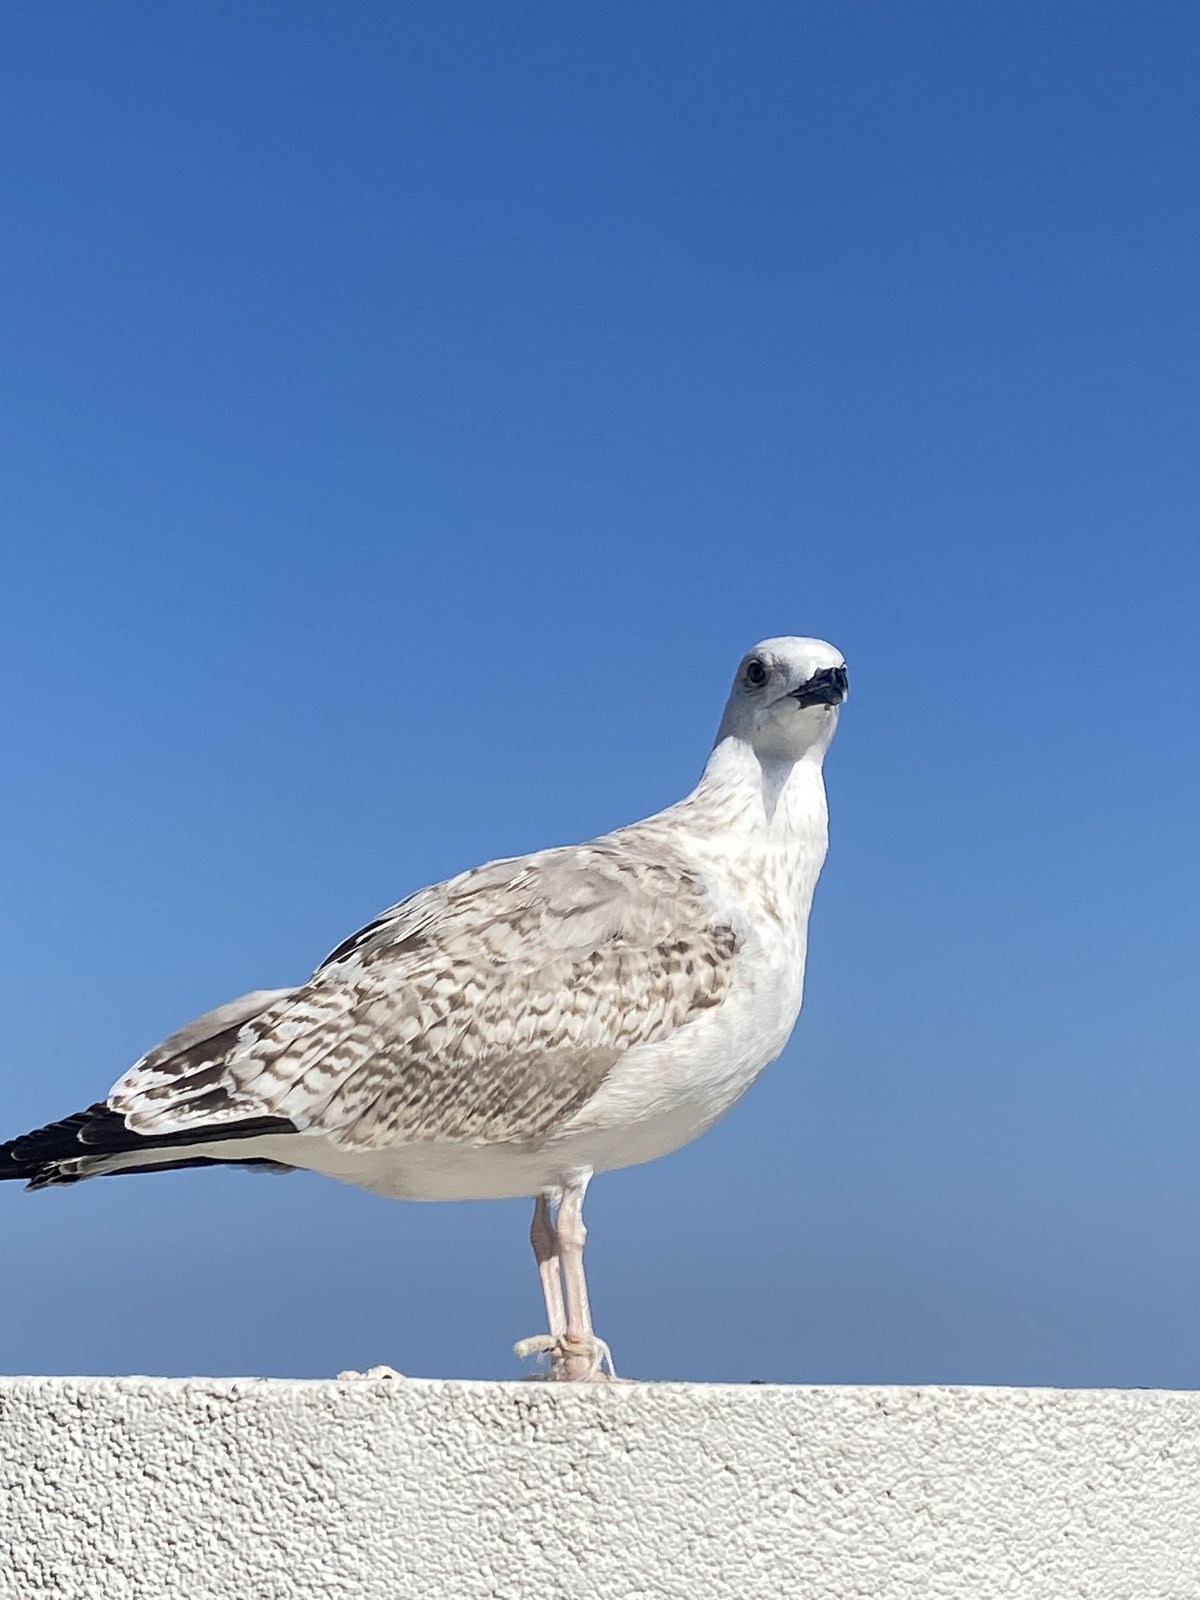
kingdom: Animalia
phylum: Chordata
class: Aves
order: Charadriiformes
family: Laridae
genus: Larus
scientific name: Larus michahellis
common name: Yellow-legged gull
